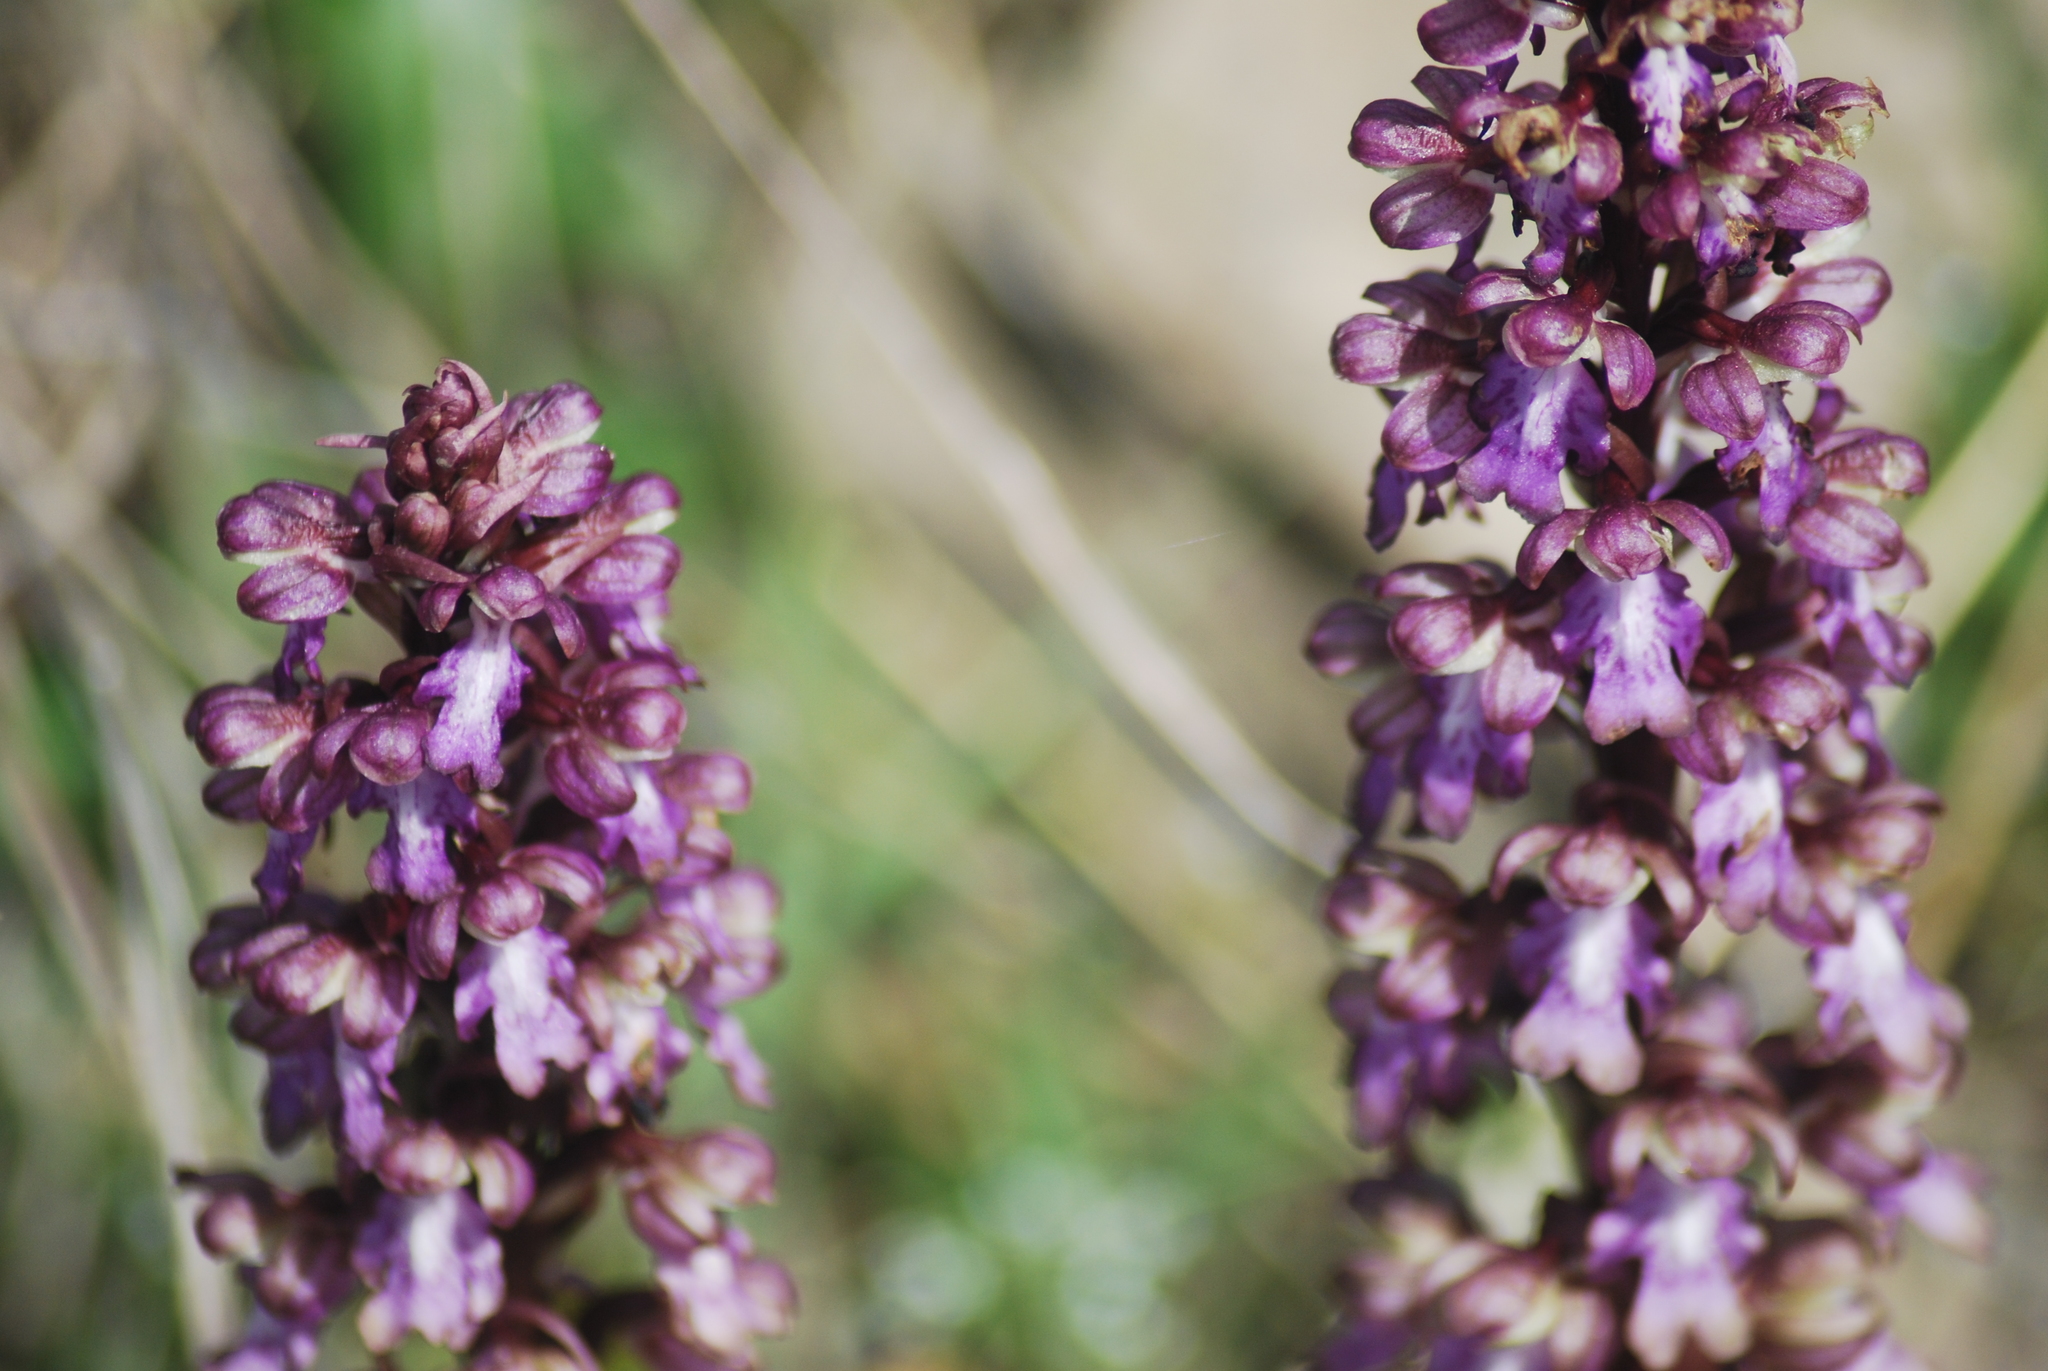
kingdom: Plantae
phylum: Tracheophyta
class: Liliopsida
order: Asparagales
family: Orchidaceae
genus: Himantoglossum
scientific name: Himantoglossum robertianum
